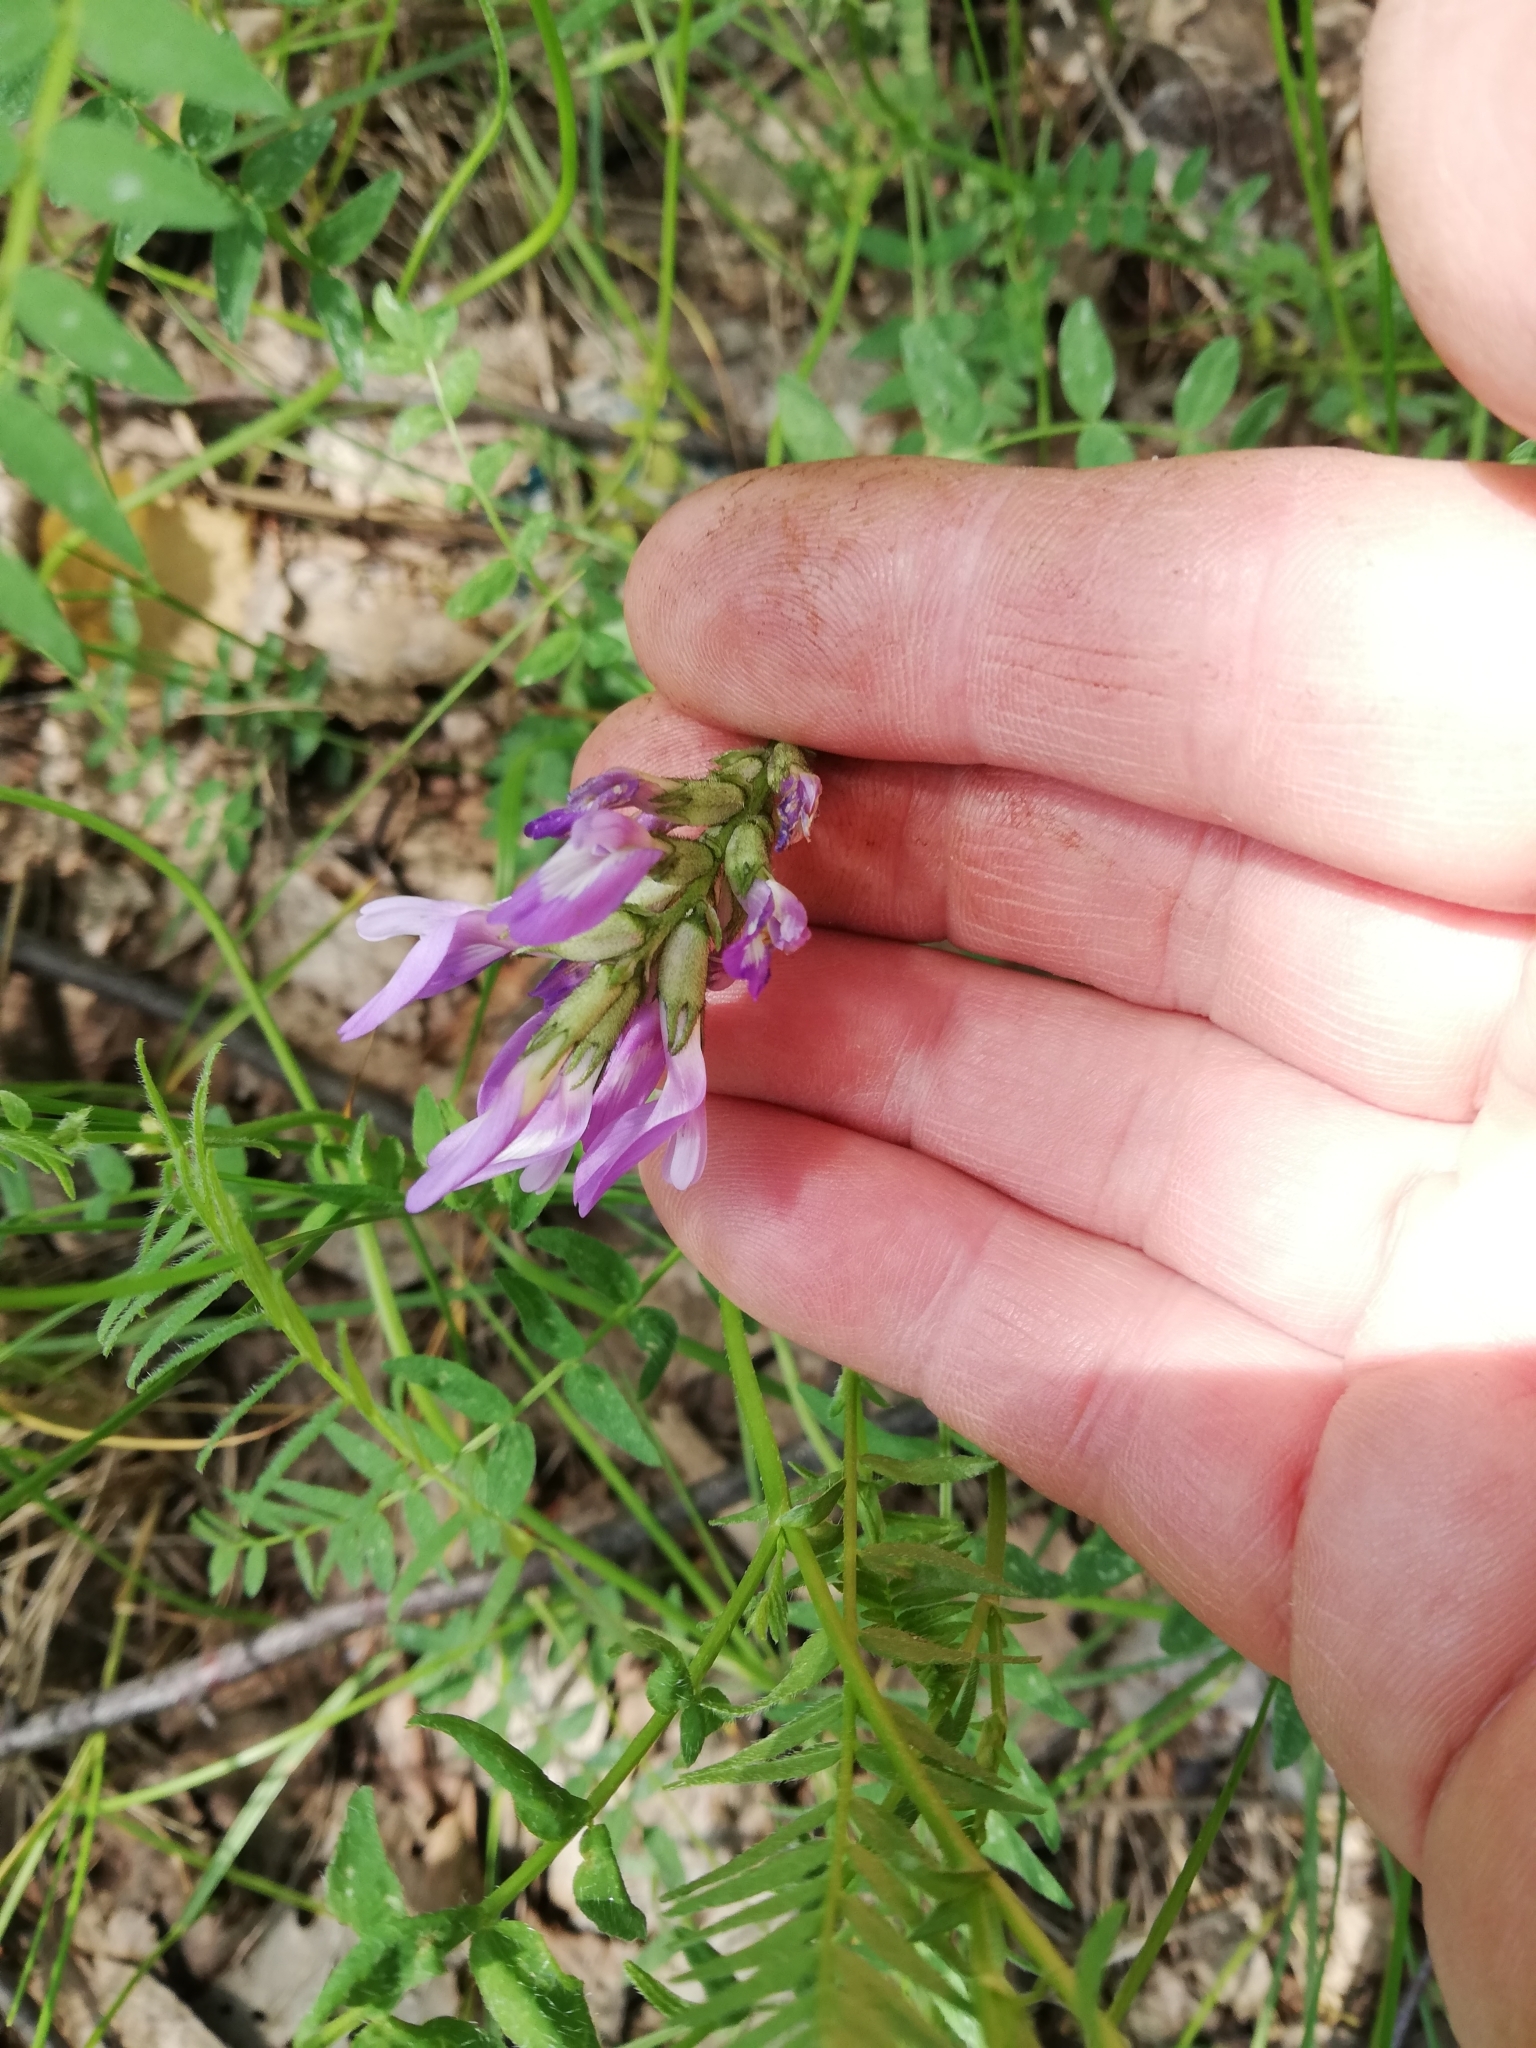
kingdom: Plantae
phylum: Tracheophyta
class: Magnoliopsida
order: Fabales
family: Fabaceae
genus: Astragalus
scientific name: Astragalus danicus
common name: Purple milk-vetch
